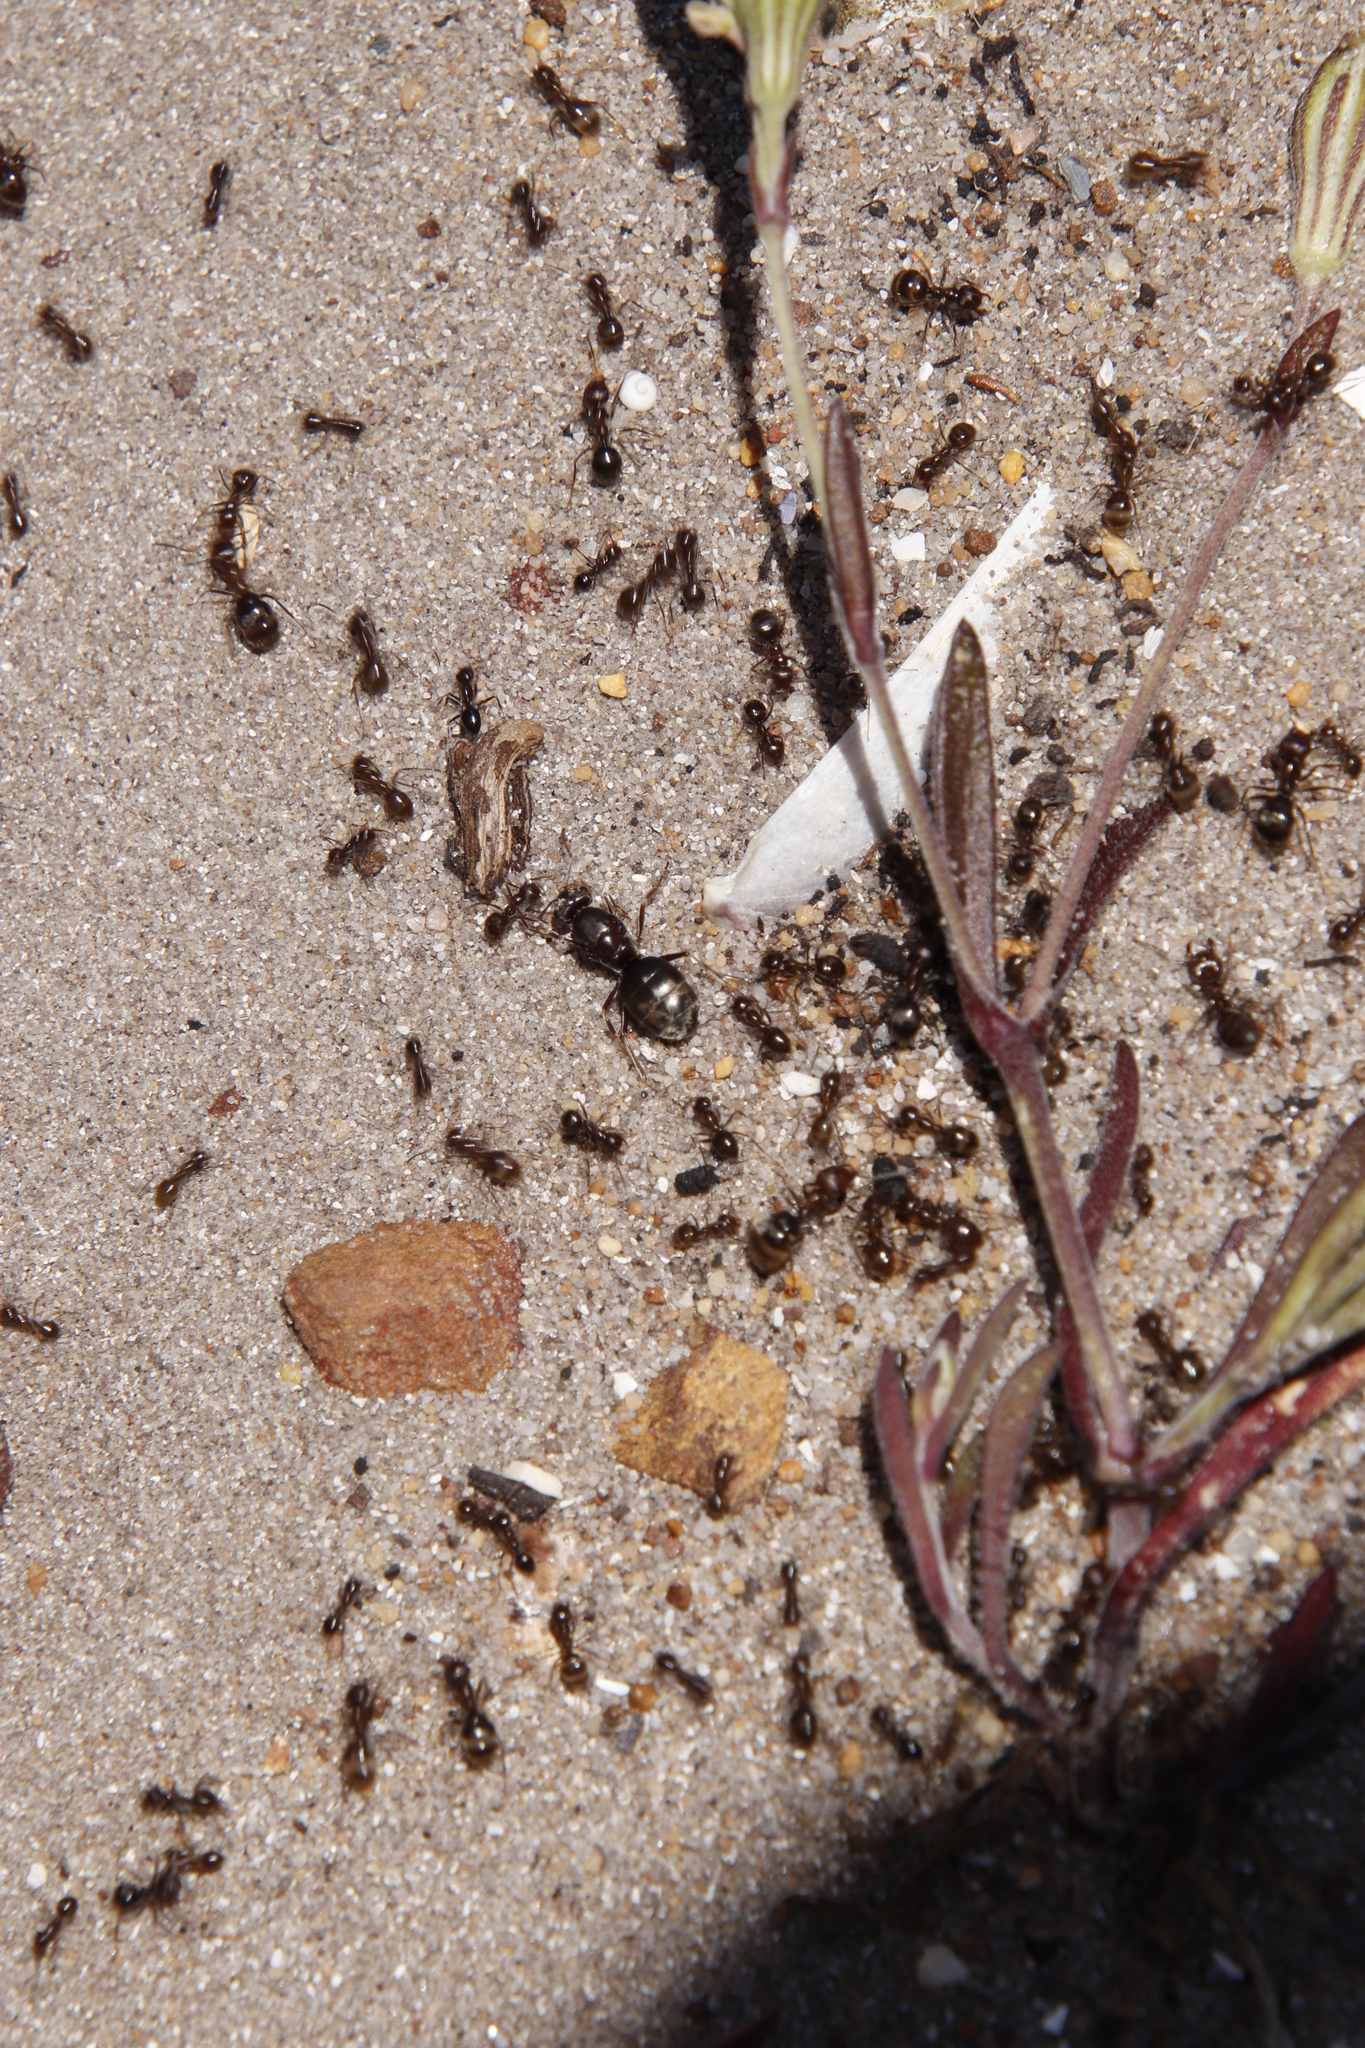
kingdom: Animalia
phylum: Arthropoda
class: Insecta
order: Hymenoptera
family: Formicidae
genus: Anoplolepis
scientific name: Anoplolepis steingroeveri
